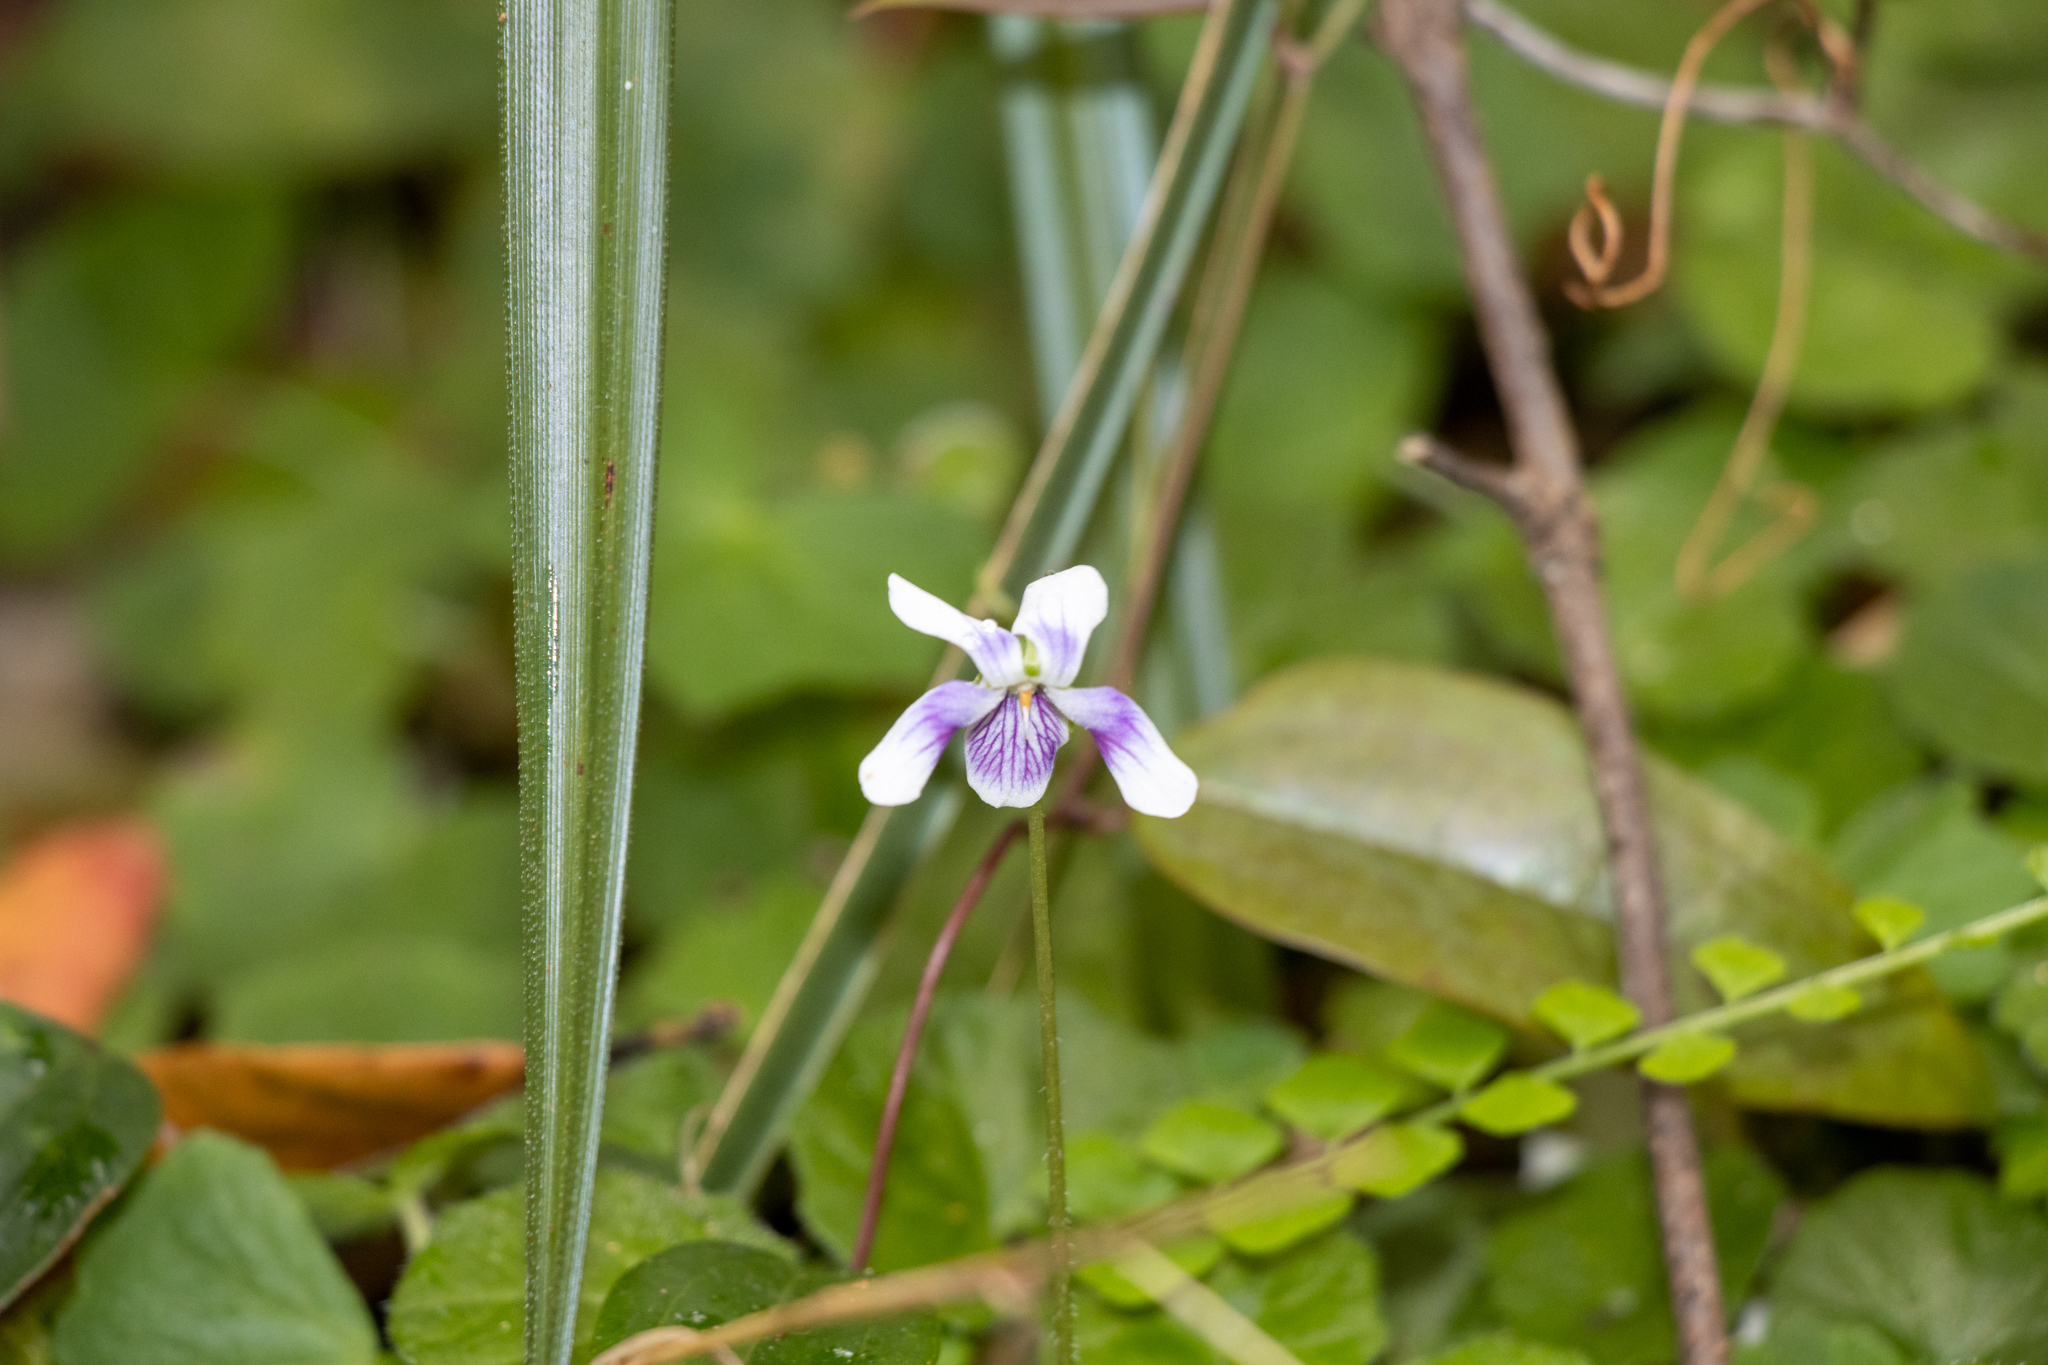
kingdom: Plantae
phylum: Tracheophyta
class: Magnoliopsida
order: Malpighiales
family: Violaceae
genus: Viola
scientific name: Viola hederacea
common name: Australian violet
